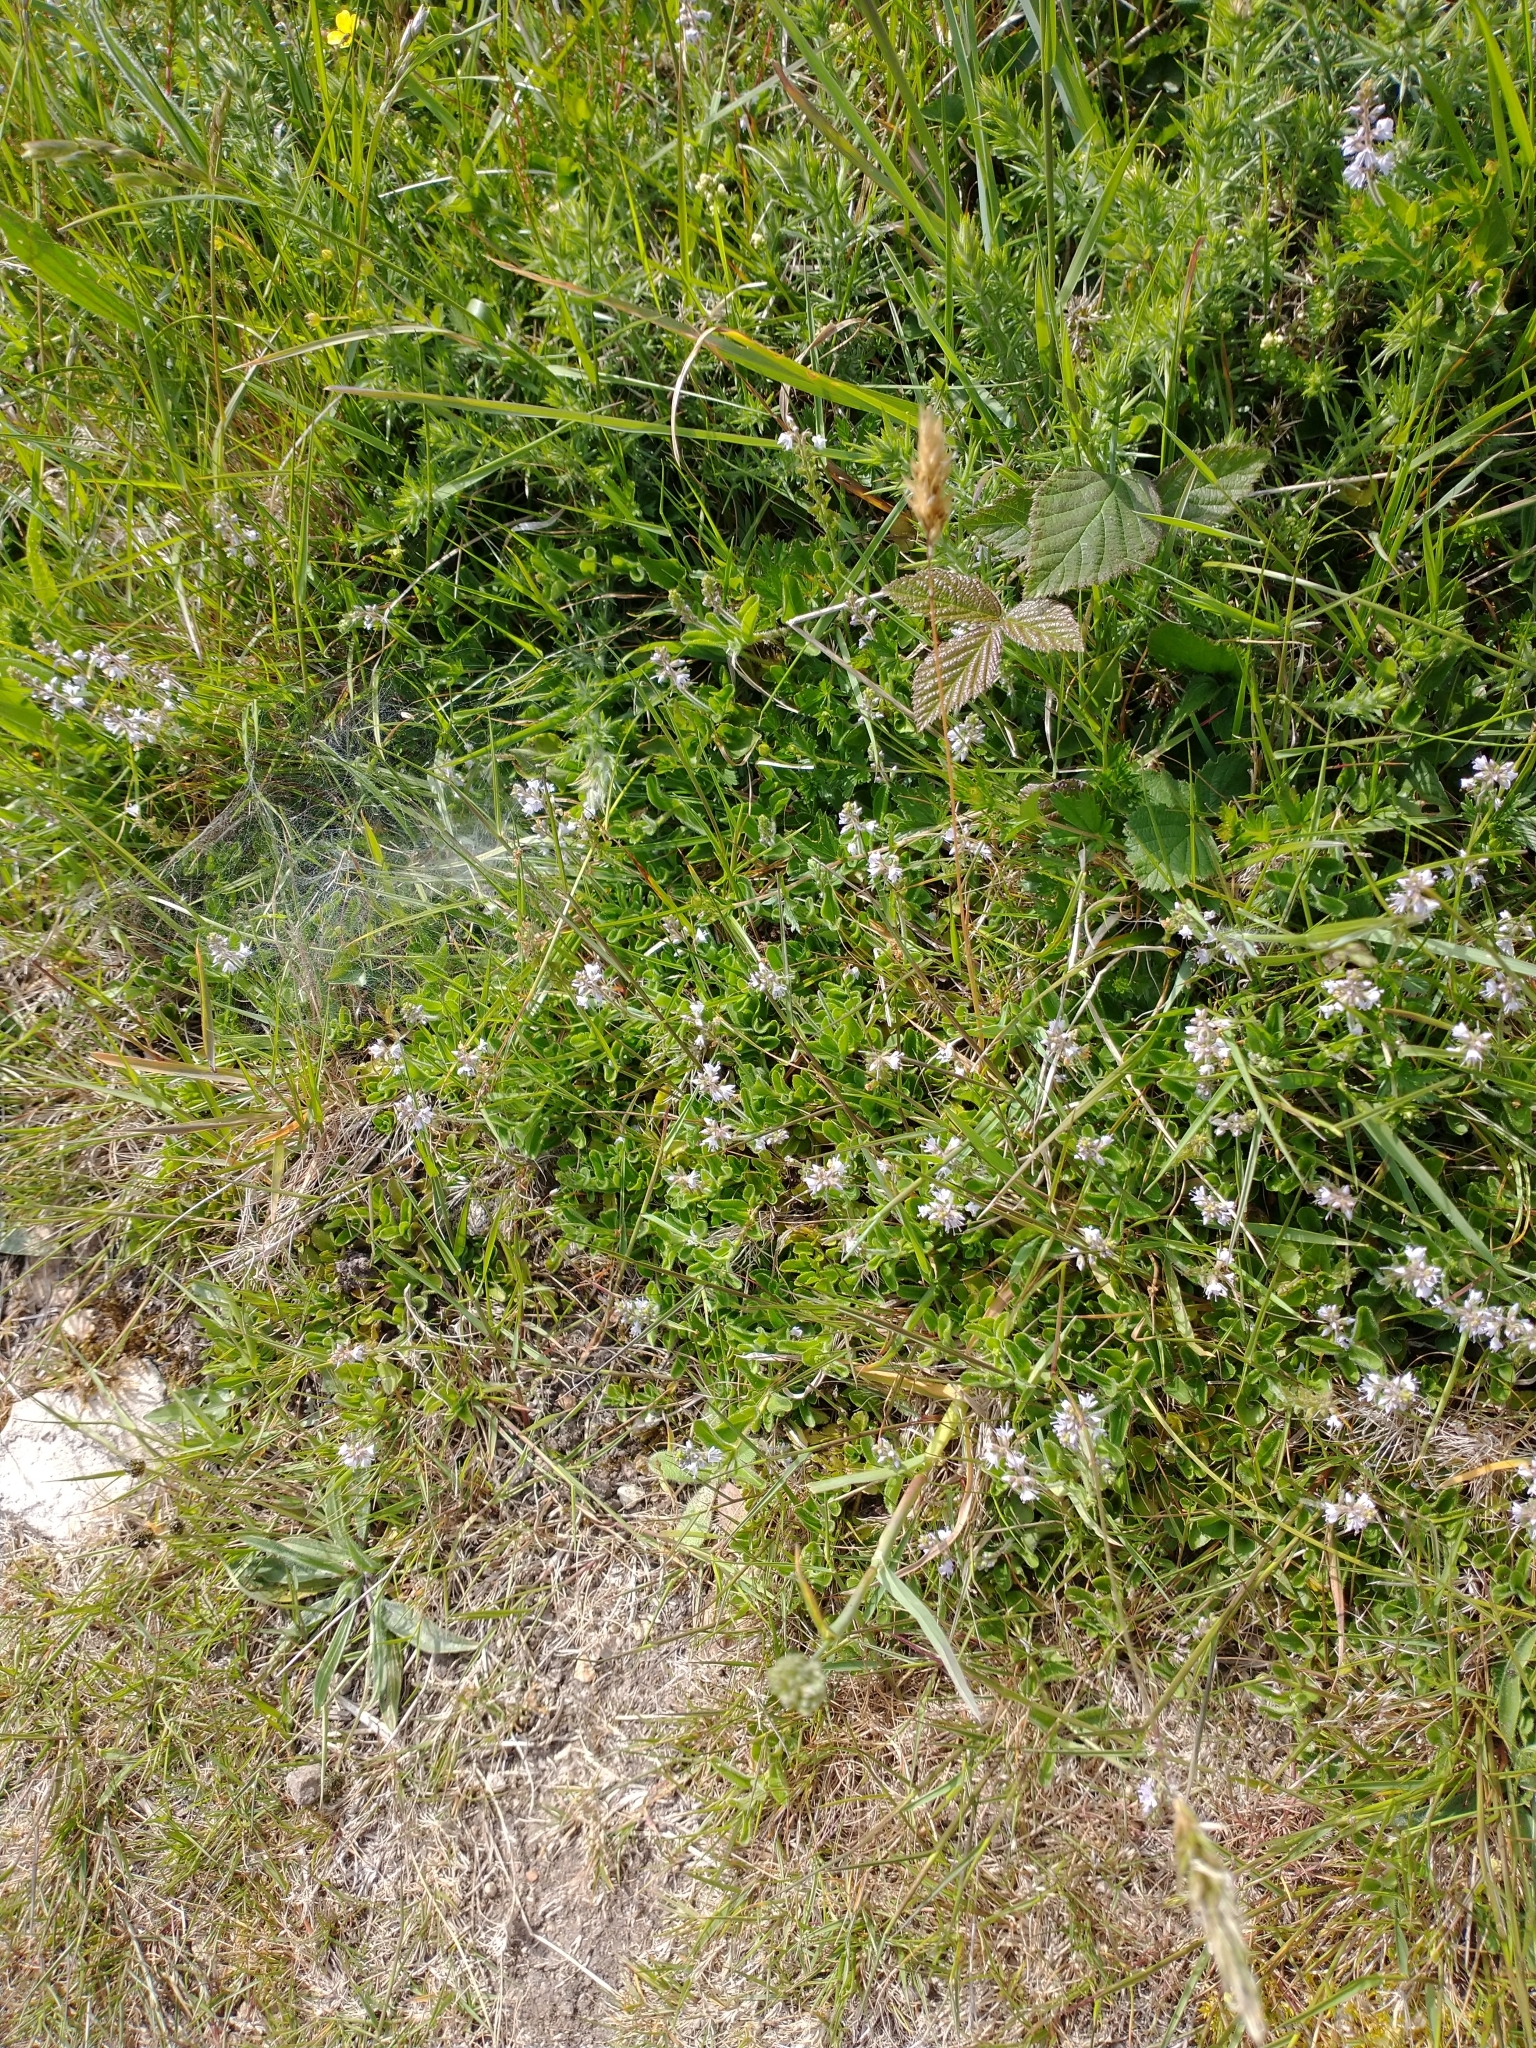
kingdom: Plantae
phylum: Tracheophyta
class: Magnoliopsida
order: Lamiales
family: Plantaginaceae
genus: Veronica
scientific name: Veronica officinalis
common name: Common speedwell
